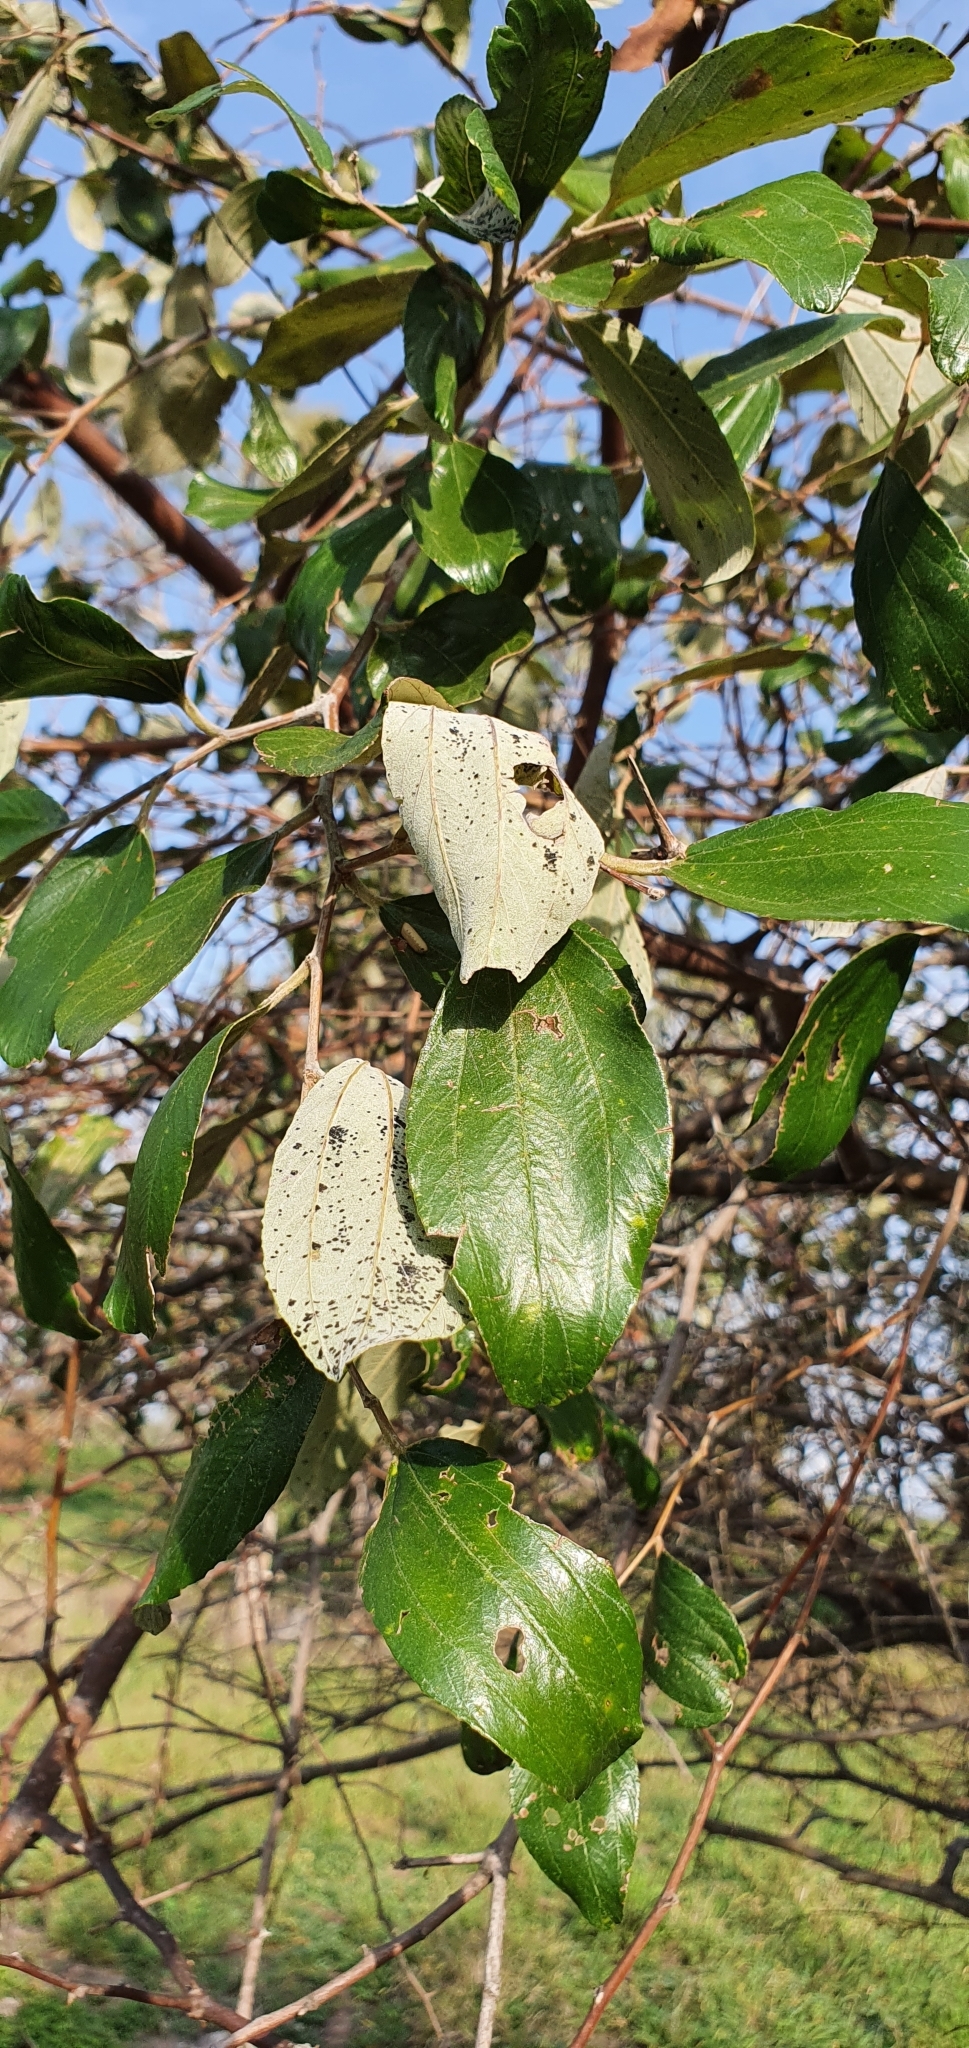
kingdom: Plantae
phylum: Tracheophyta
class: Magnoliopsida
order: Rosales
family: Rhamnaceae
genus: Ziziphus
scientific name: Ziziphus mauritiana
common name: Indian jujube
